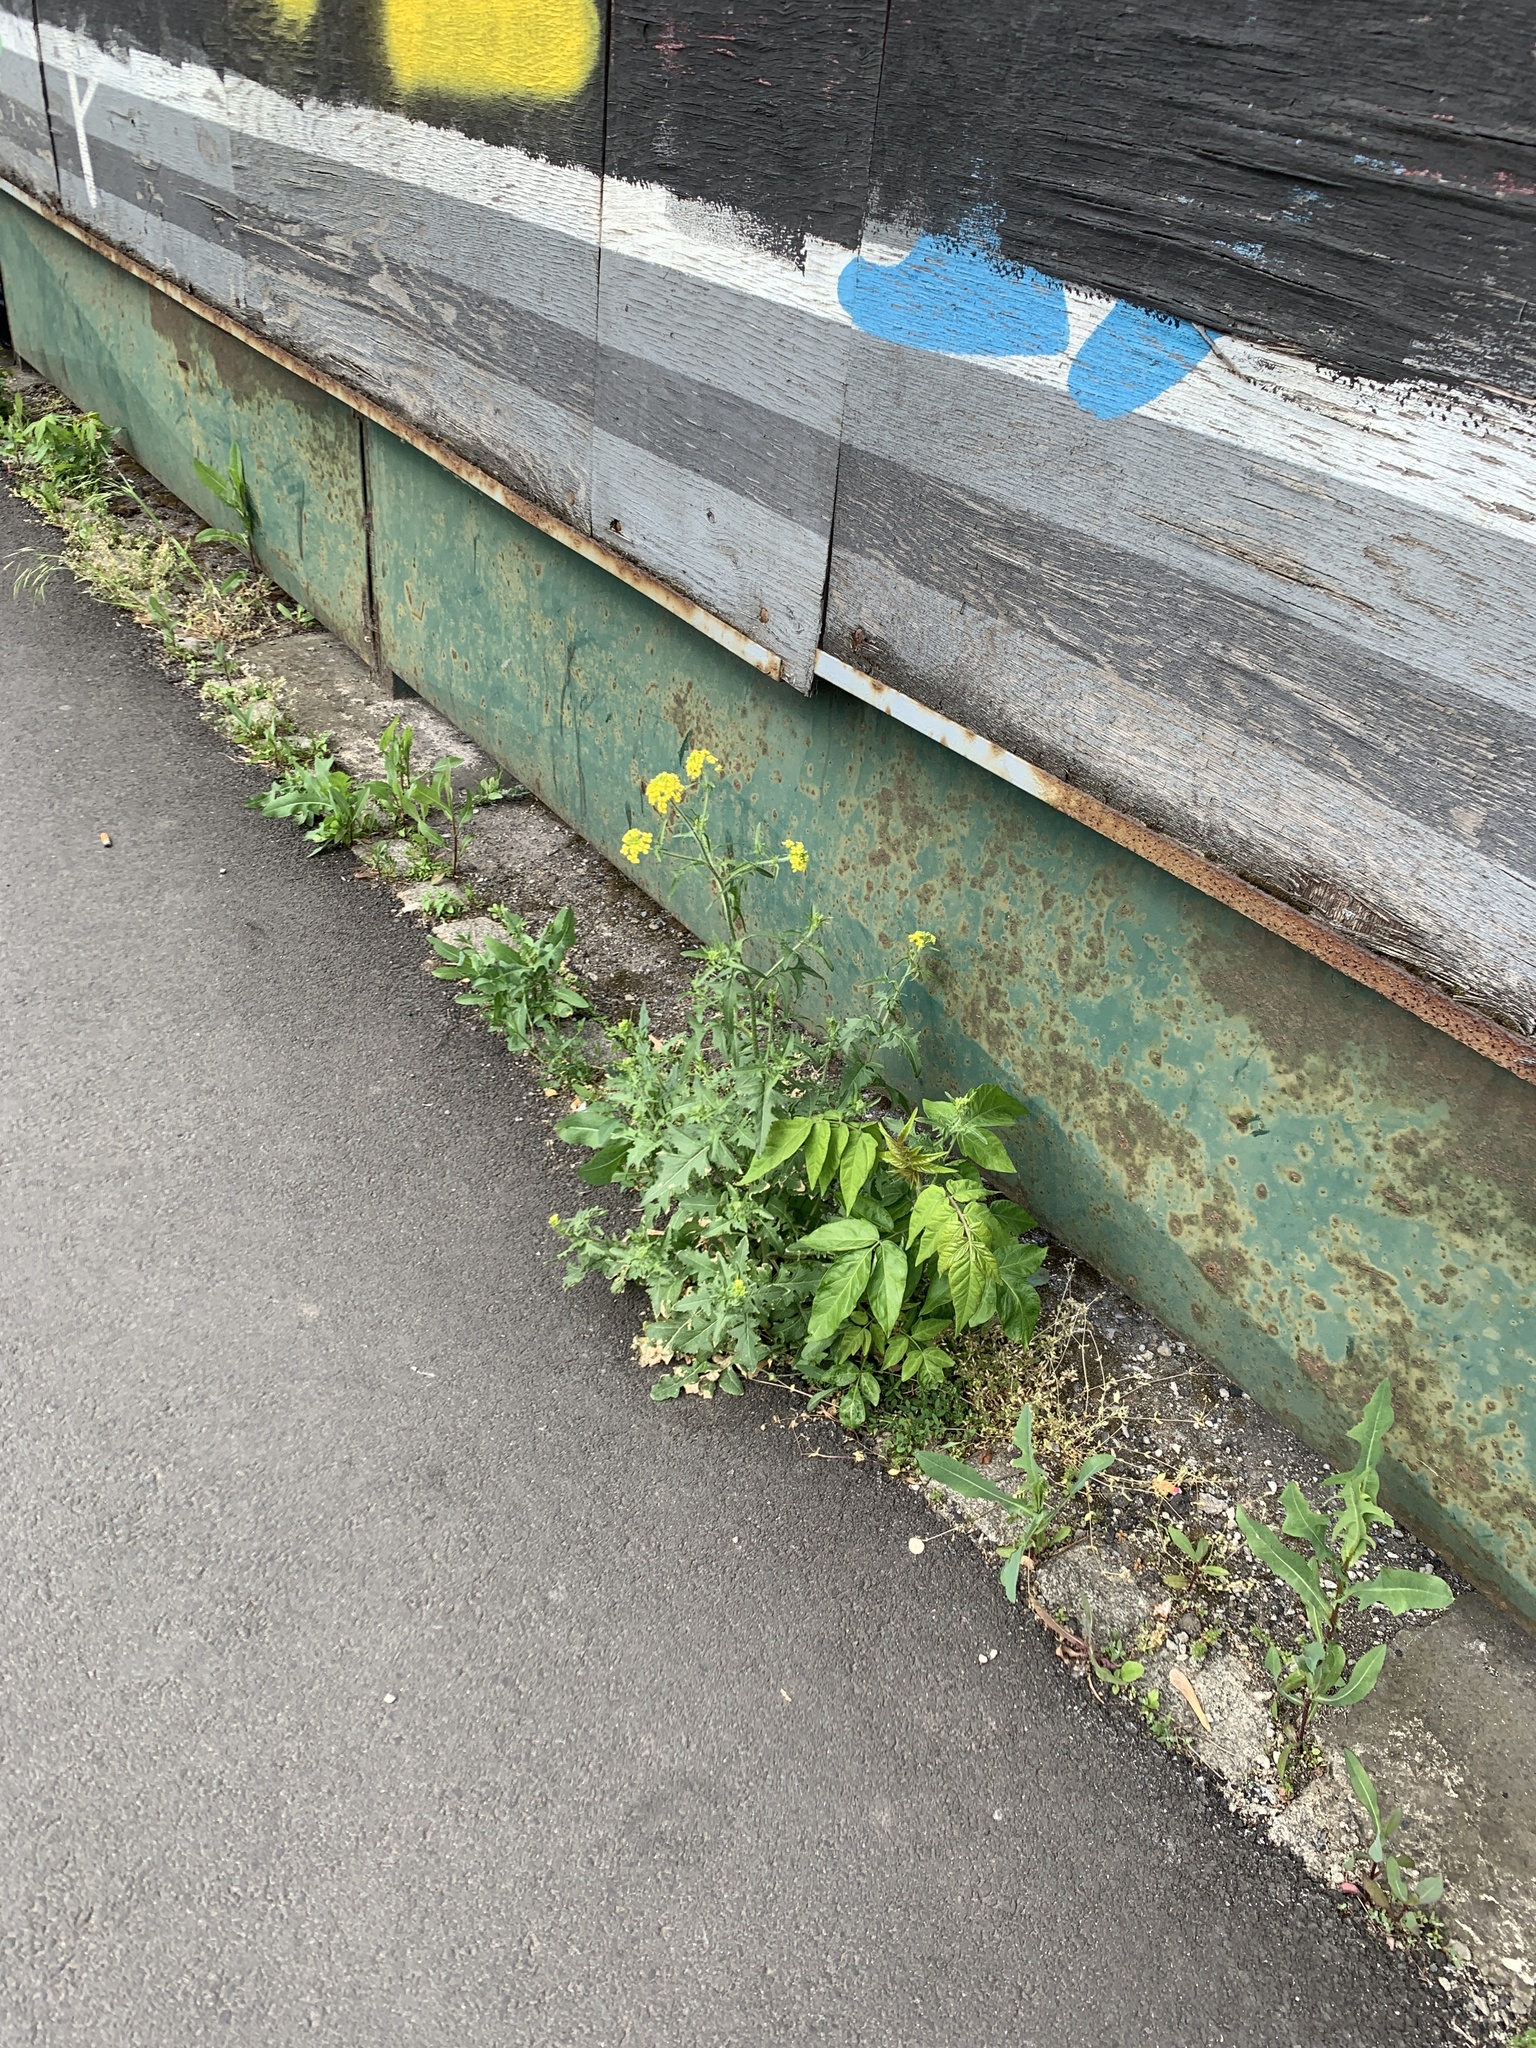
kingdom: Plantae
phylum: Tracheophyta
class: Magnoliopsida
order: Brassicales
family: Brassicaceae
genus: Sisymbrium
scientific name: Sisymbrium loeselii
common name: False london-rocket
